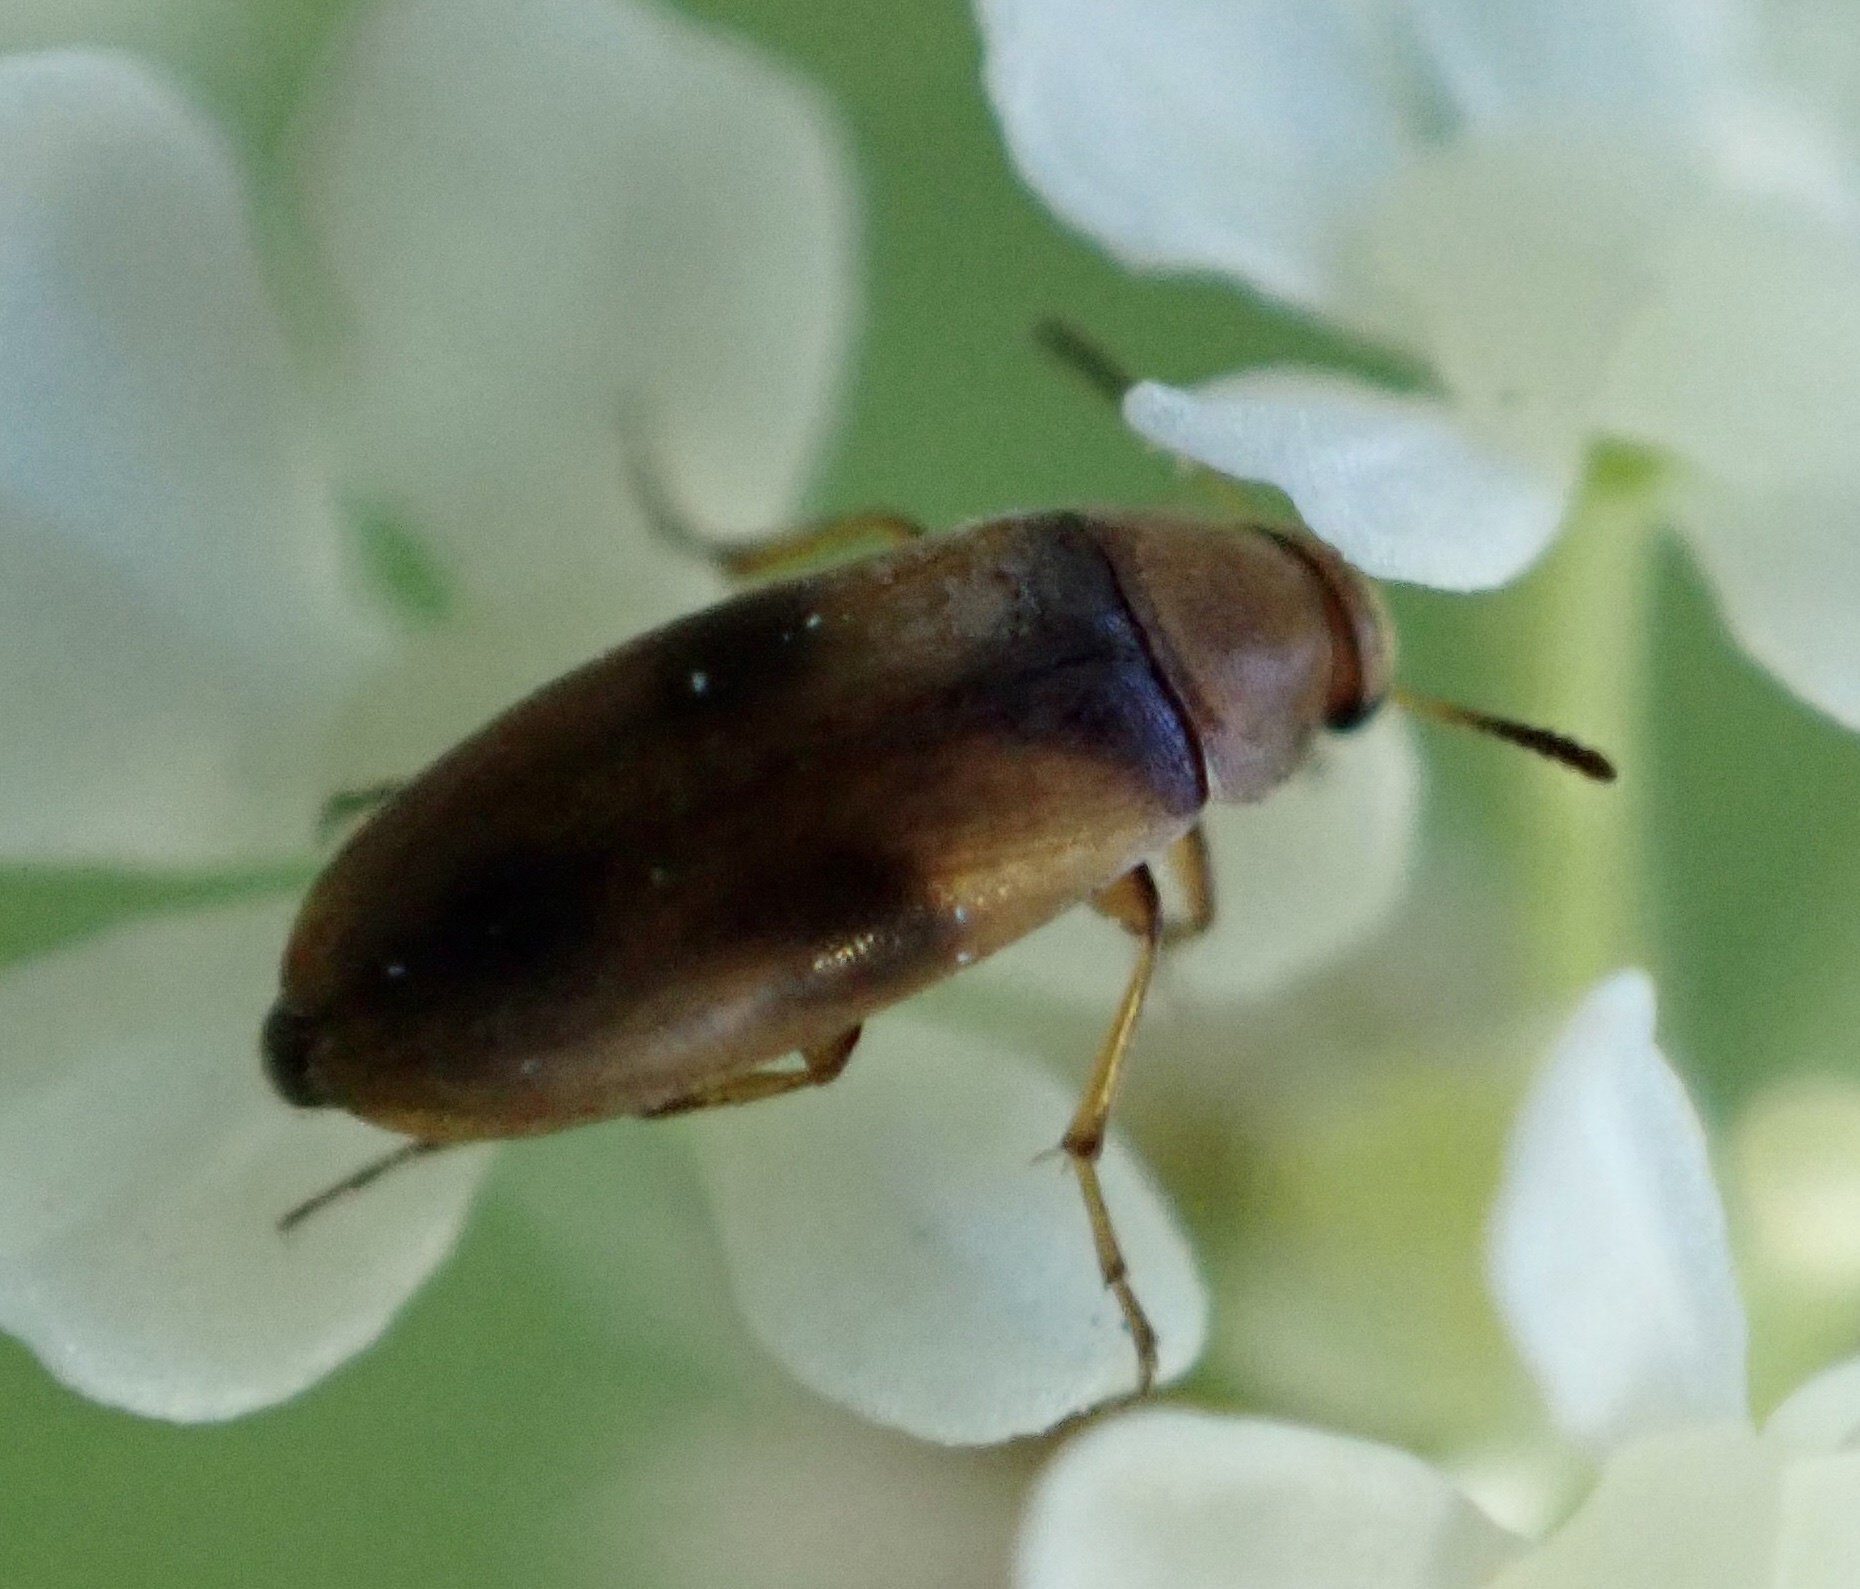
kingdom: Animalia
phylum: Arthropoda
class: Insecta
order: Coleoptera
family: Scraptiidae
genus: Anaspis
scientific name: Anaspis maculata
